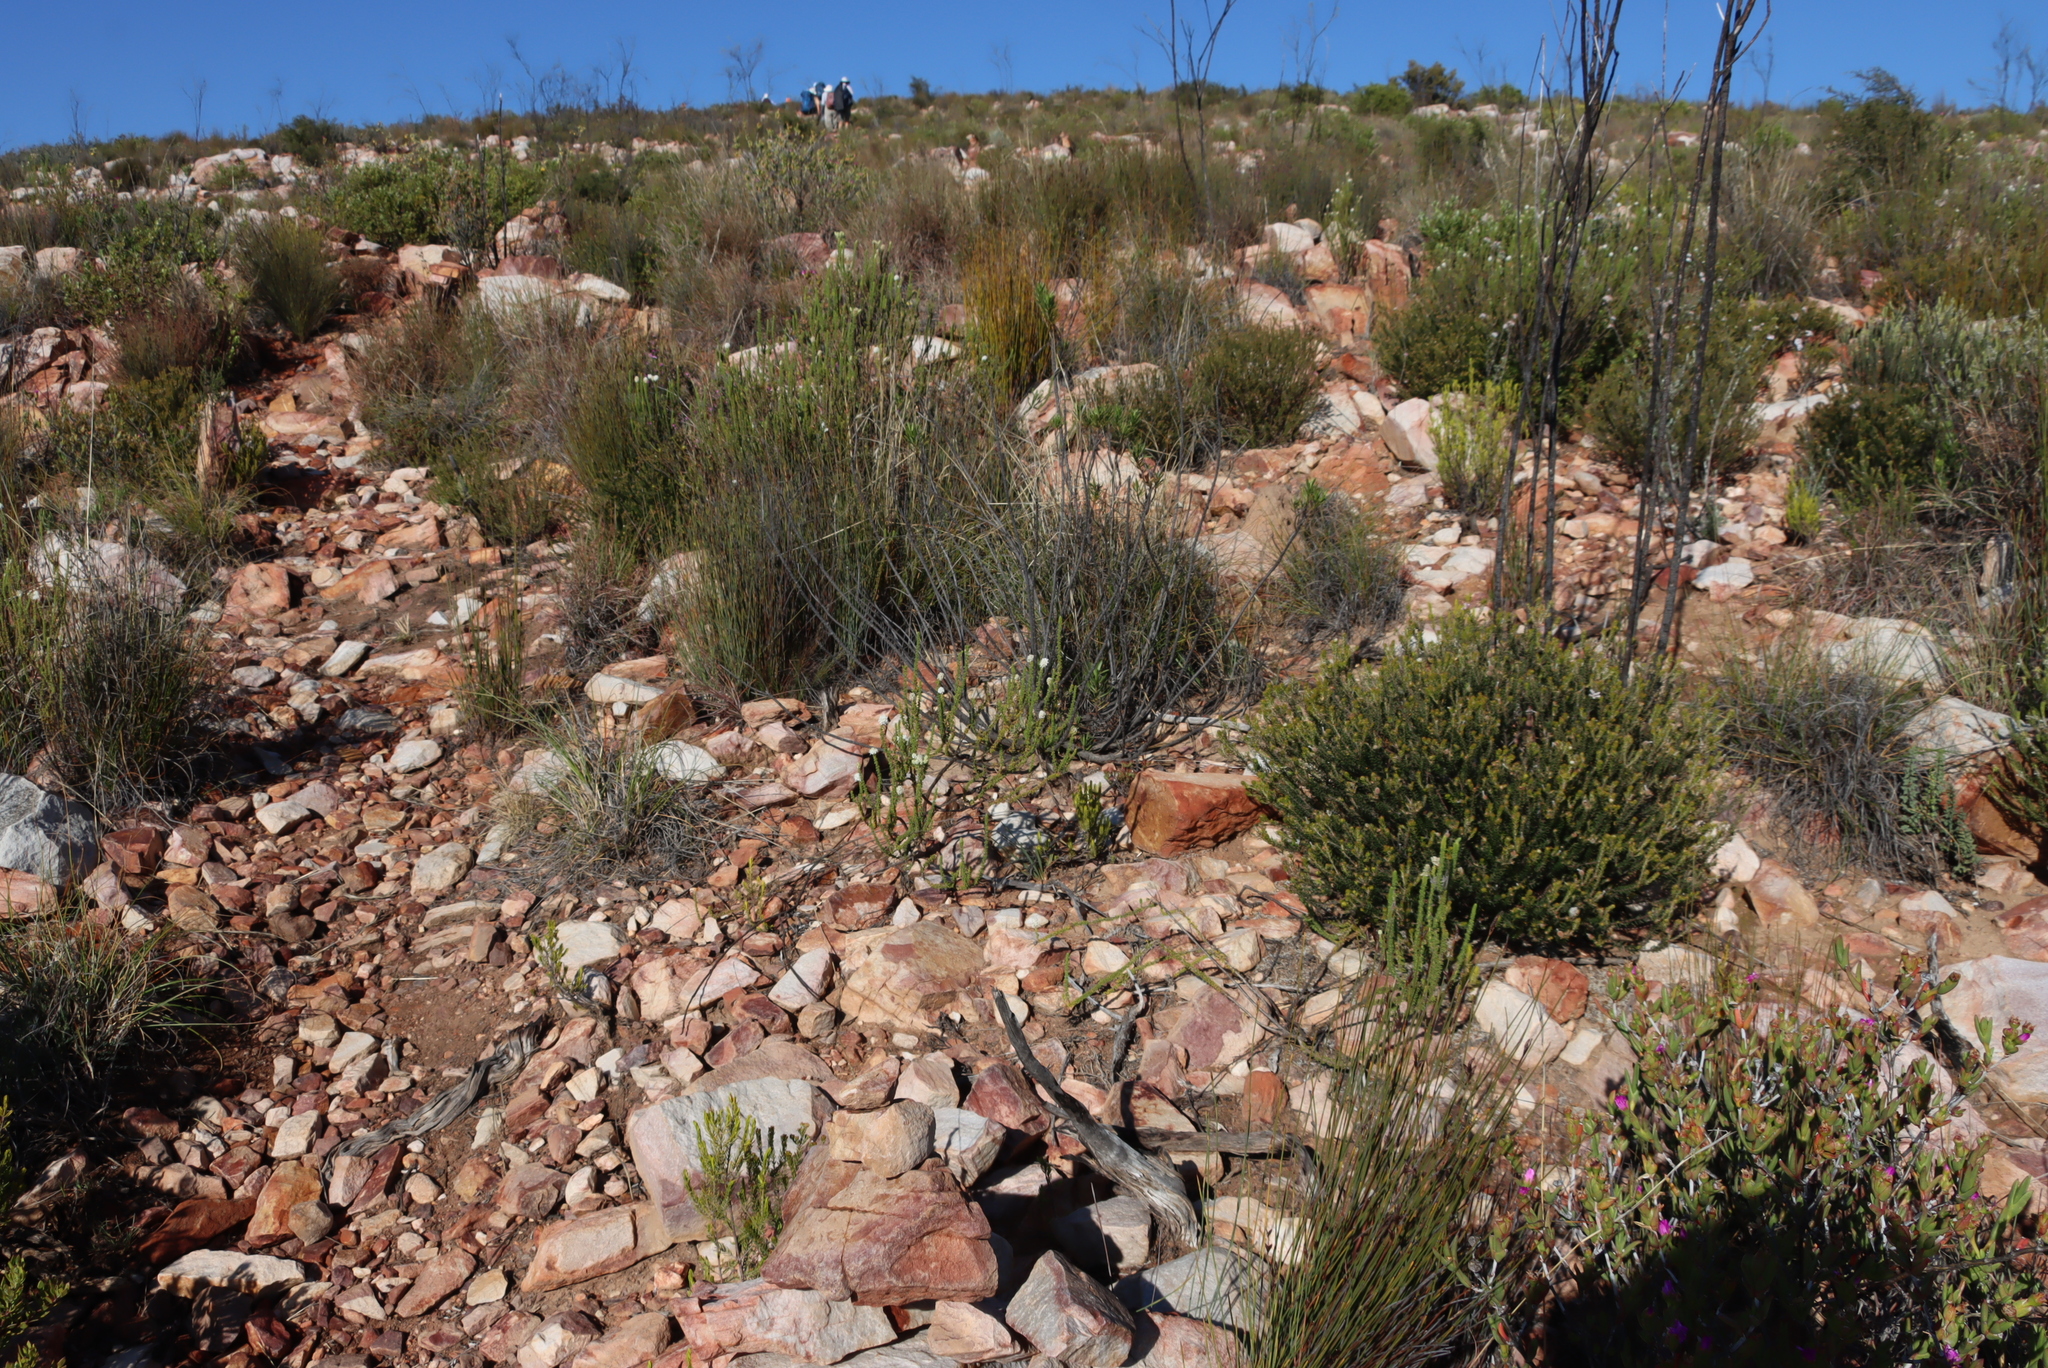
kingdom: Plantae
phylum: Tracheophyta
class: Magnoliopsida
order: Lamiales
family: Scrophulariaceae
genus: Selago
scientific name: Selago karooica
